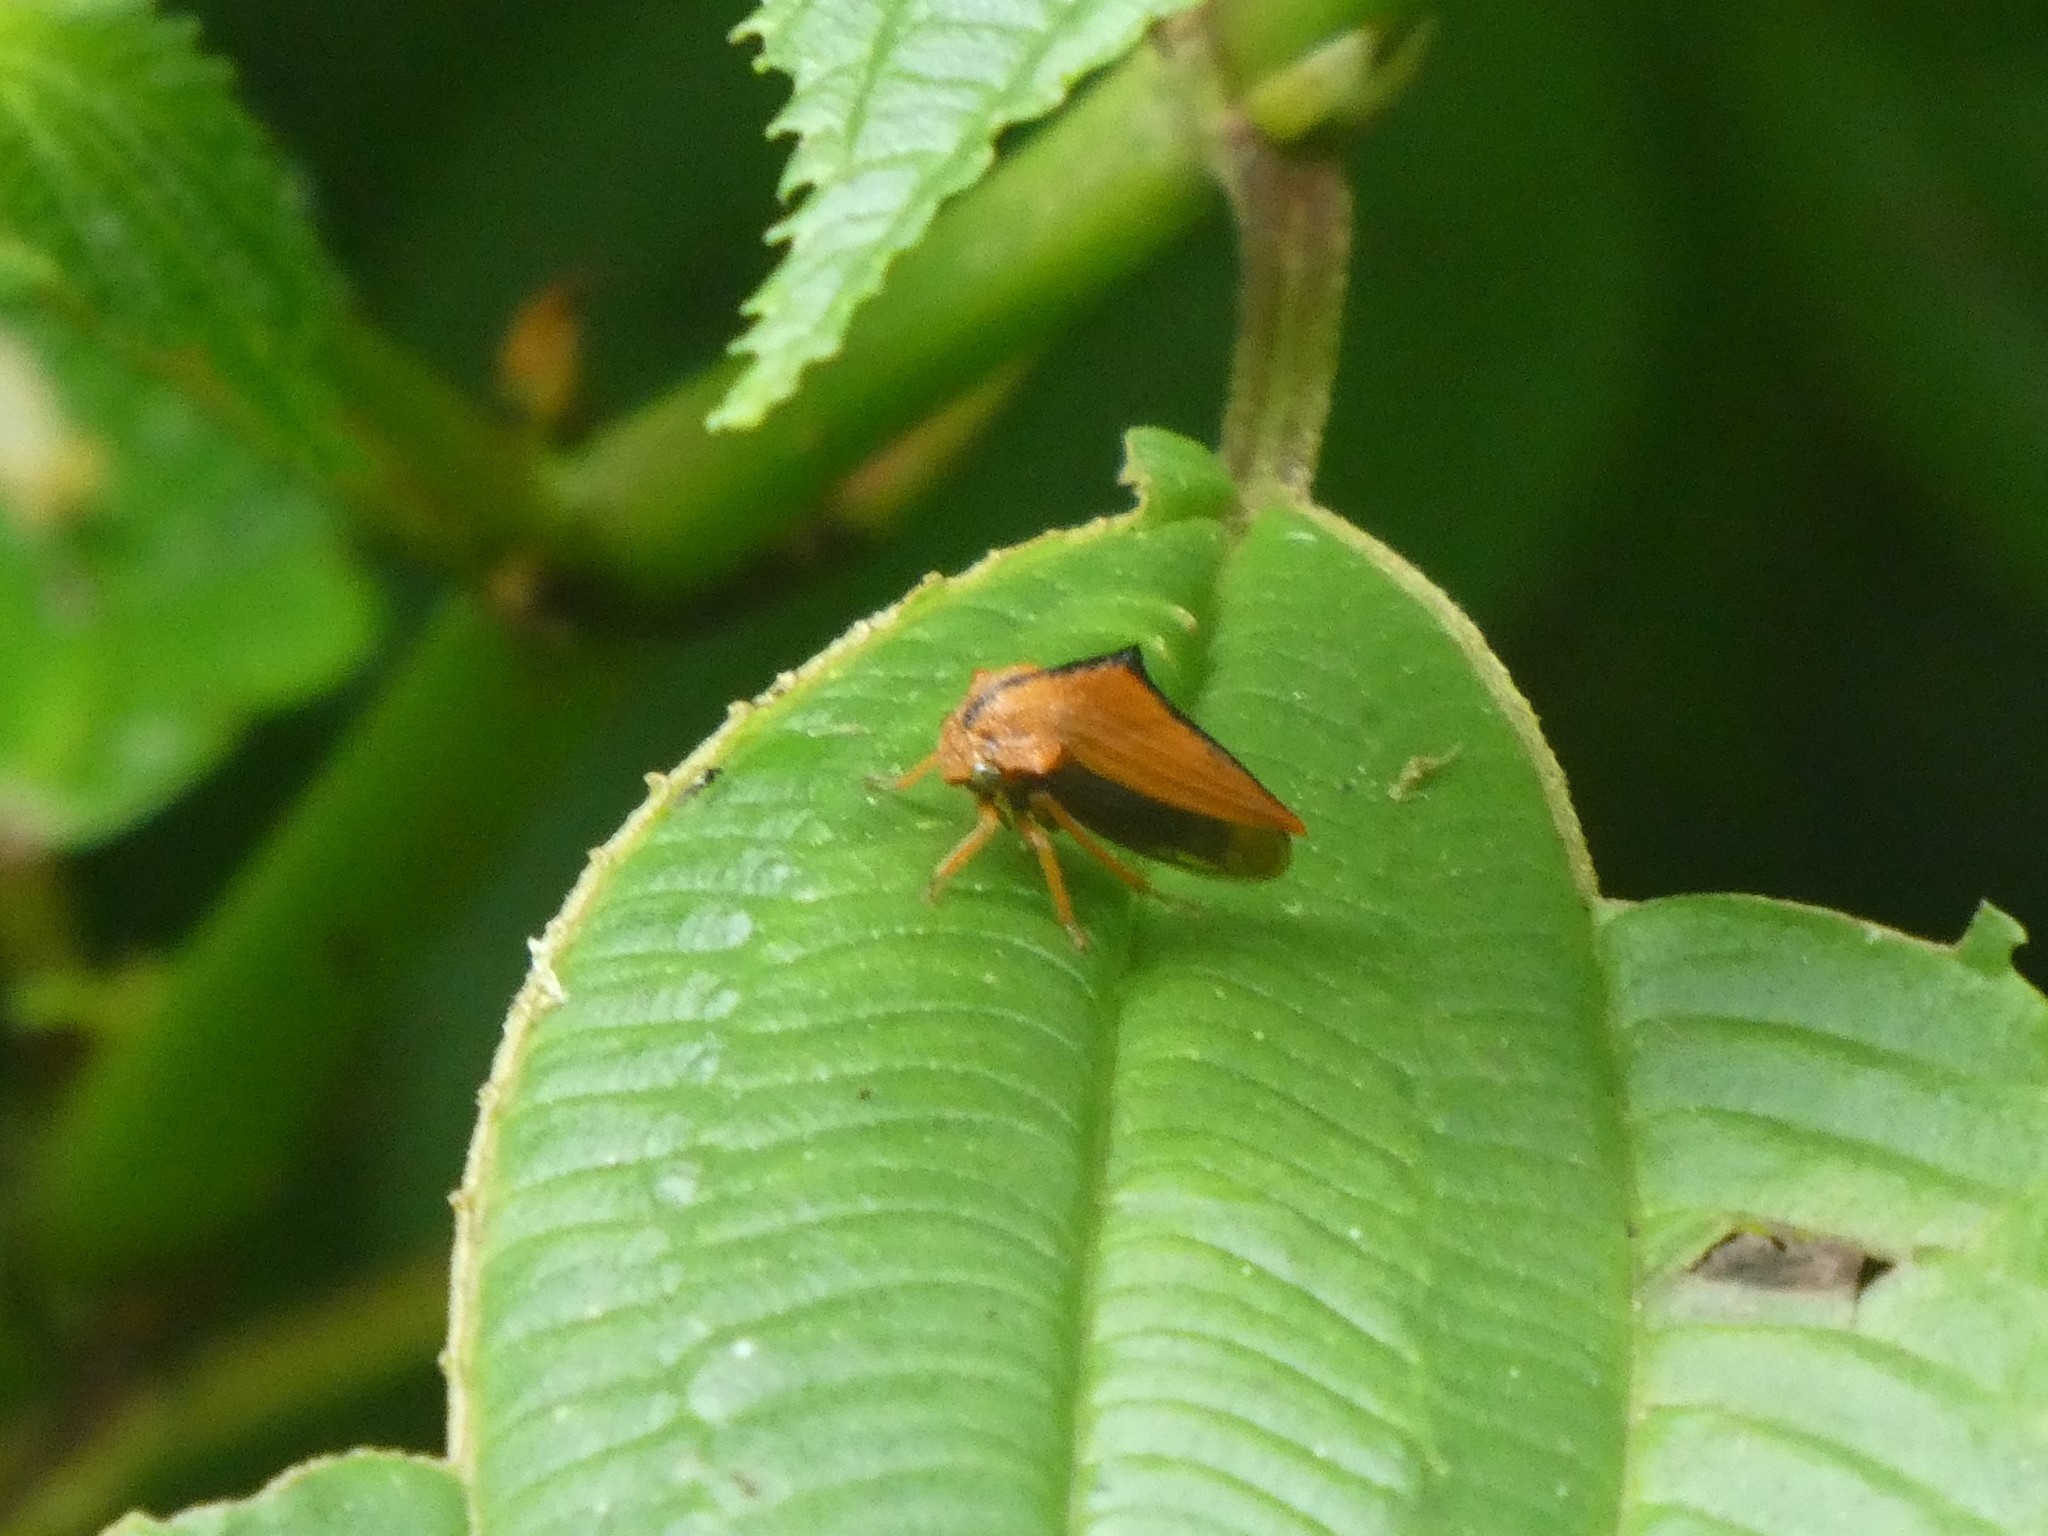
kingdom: Animalia
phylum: Arthropoda
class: Insecta
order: Hemiptera
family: Membracidae
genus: Ennya
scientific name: Ennya sobria
